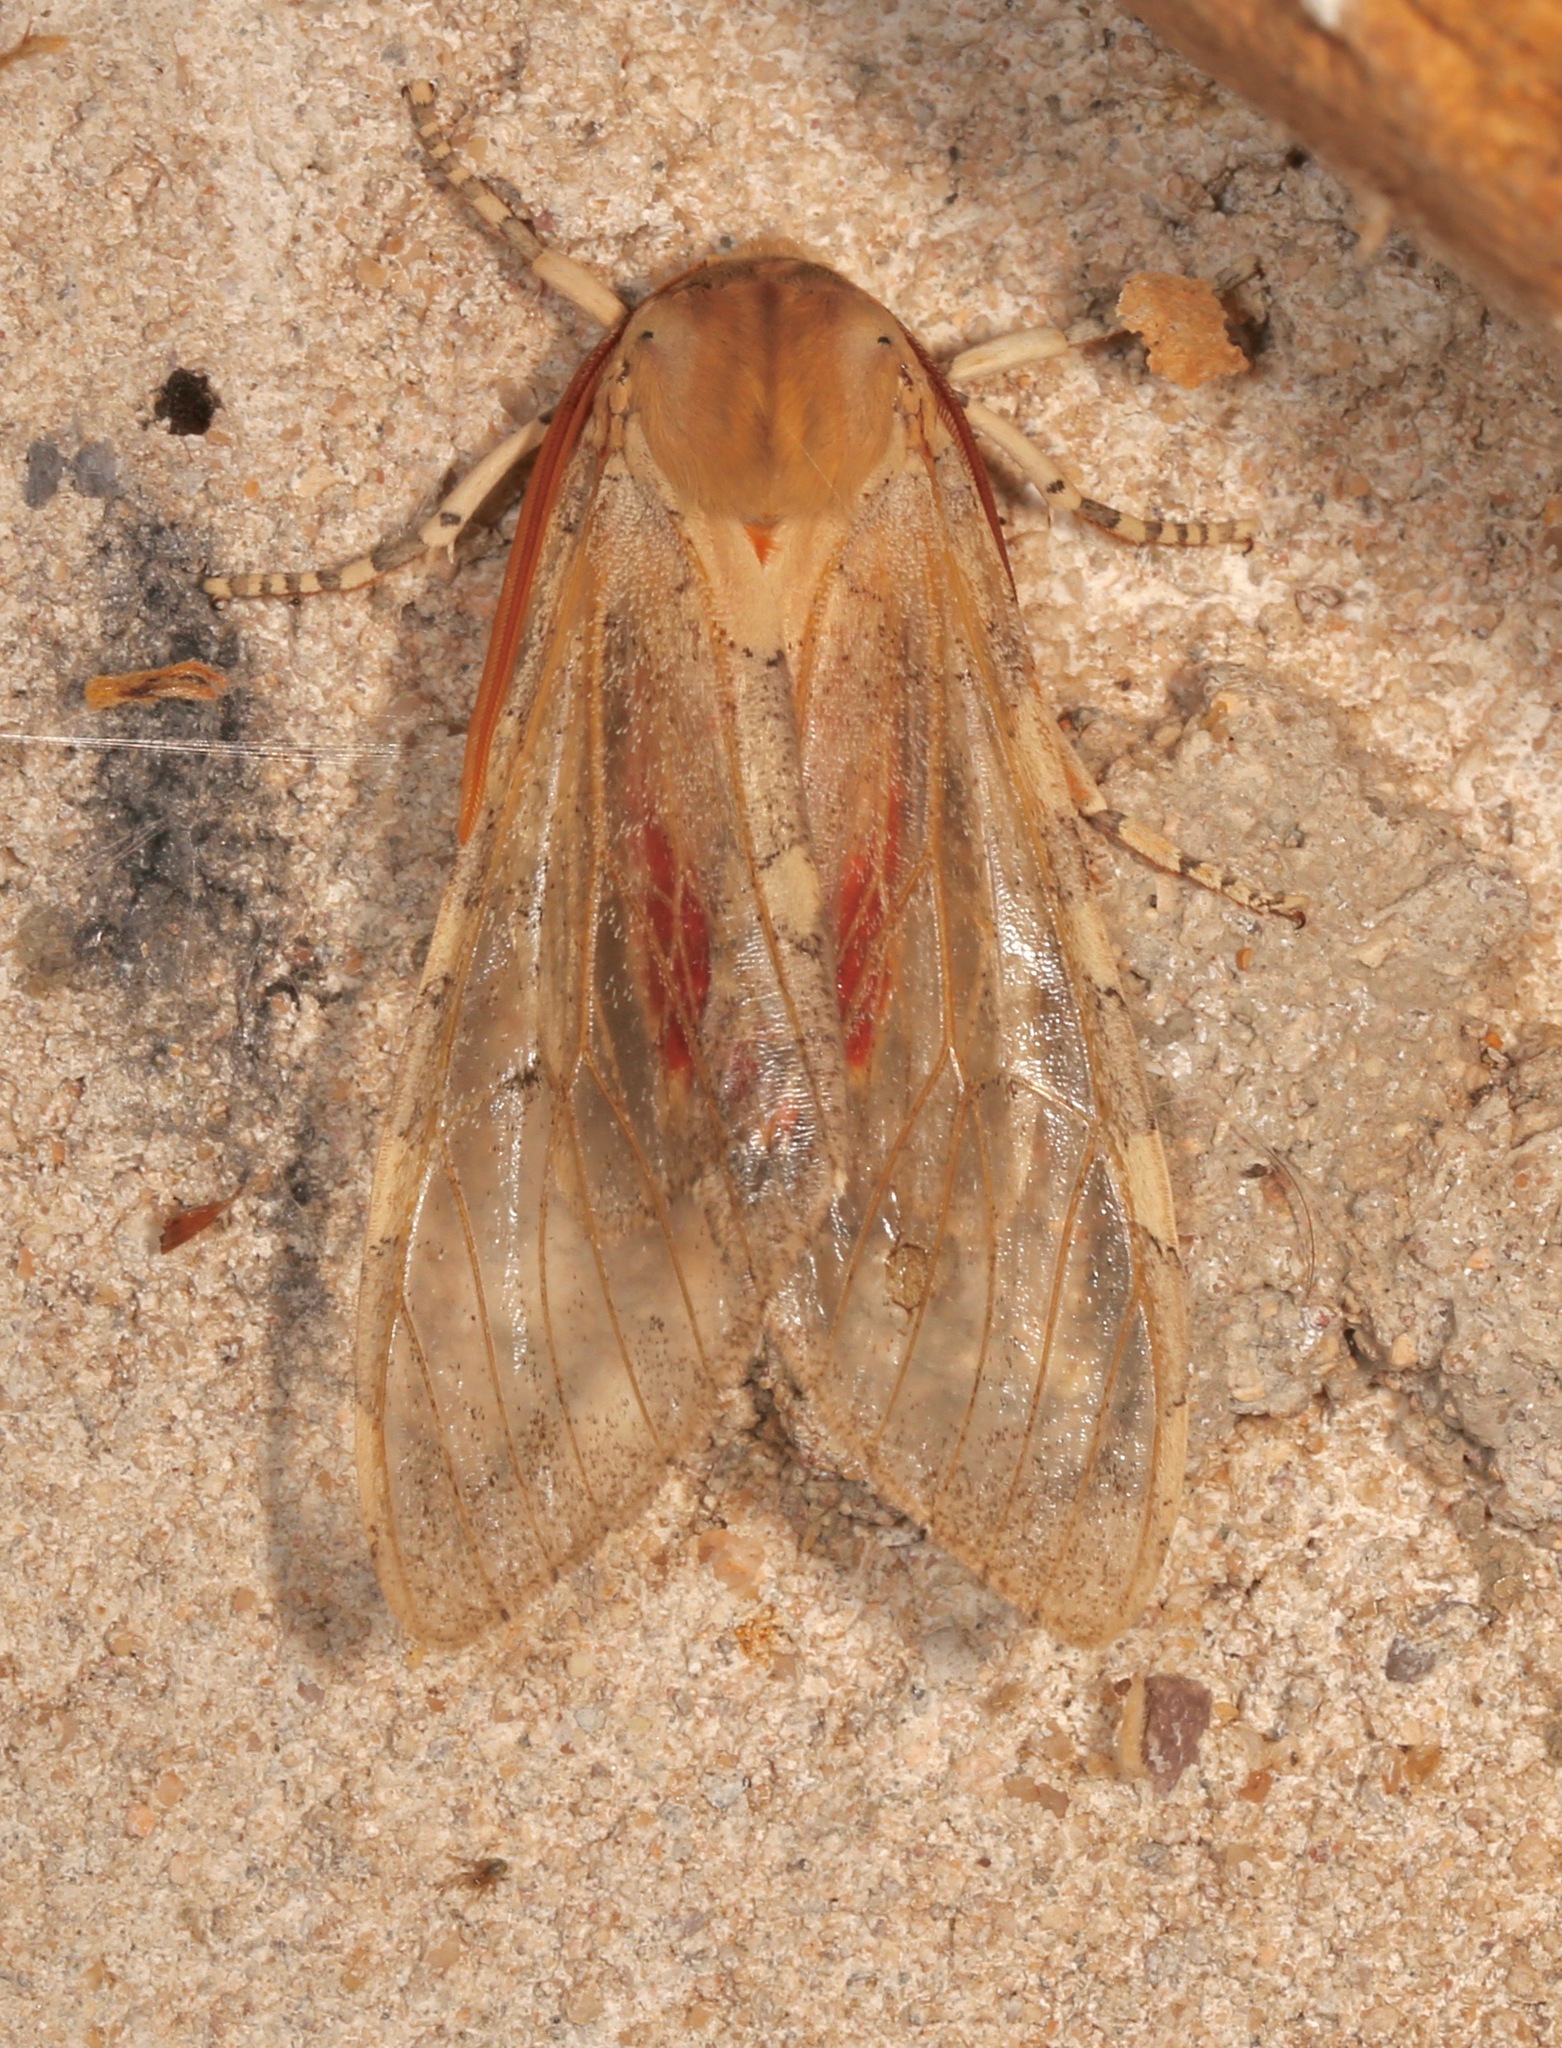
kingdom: Animalia
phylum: Arthropoda
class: Insecta
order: Lepidoptera
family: Erebidae
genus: Hemihyalea
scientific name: Hemihyalea edwardsii
